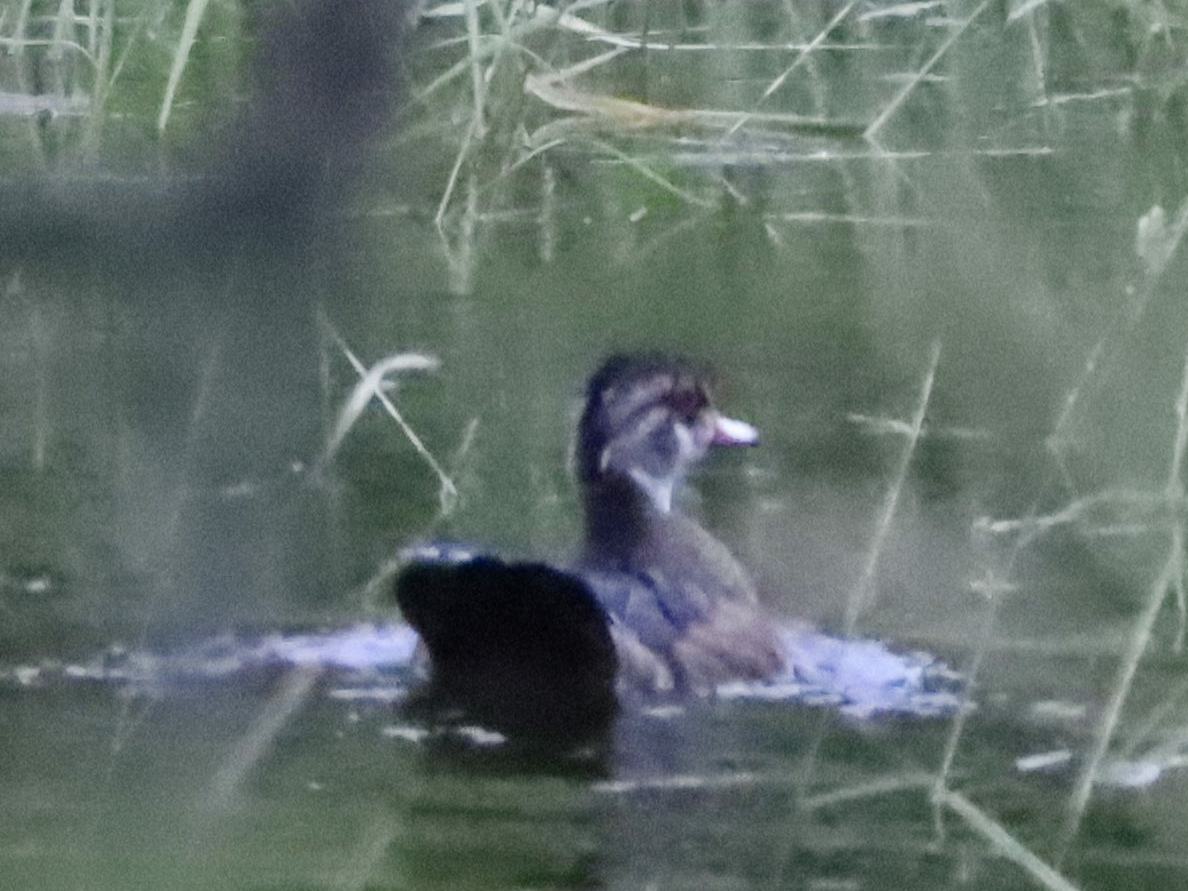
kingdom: Animalia
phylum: Chordata
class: Aves
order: Anseriformes
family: Anatidae
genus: Aix
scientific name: Aix sponsa
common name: Wood duck
